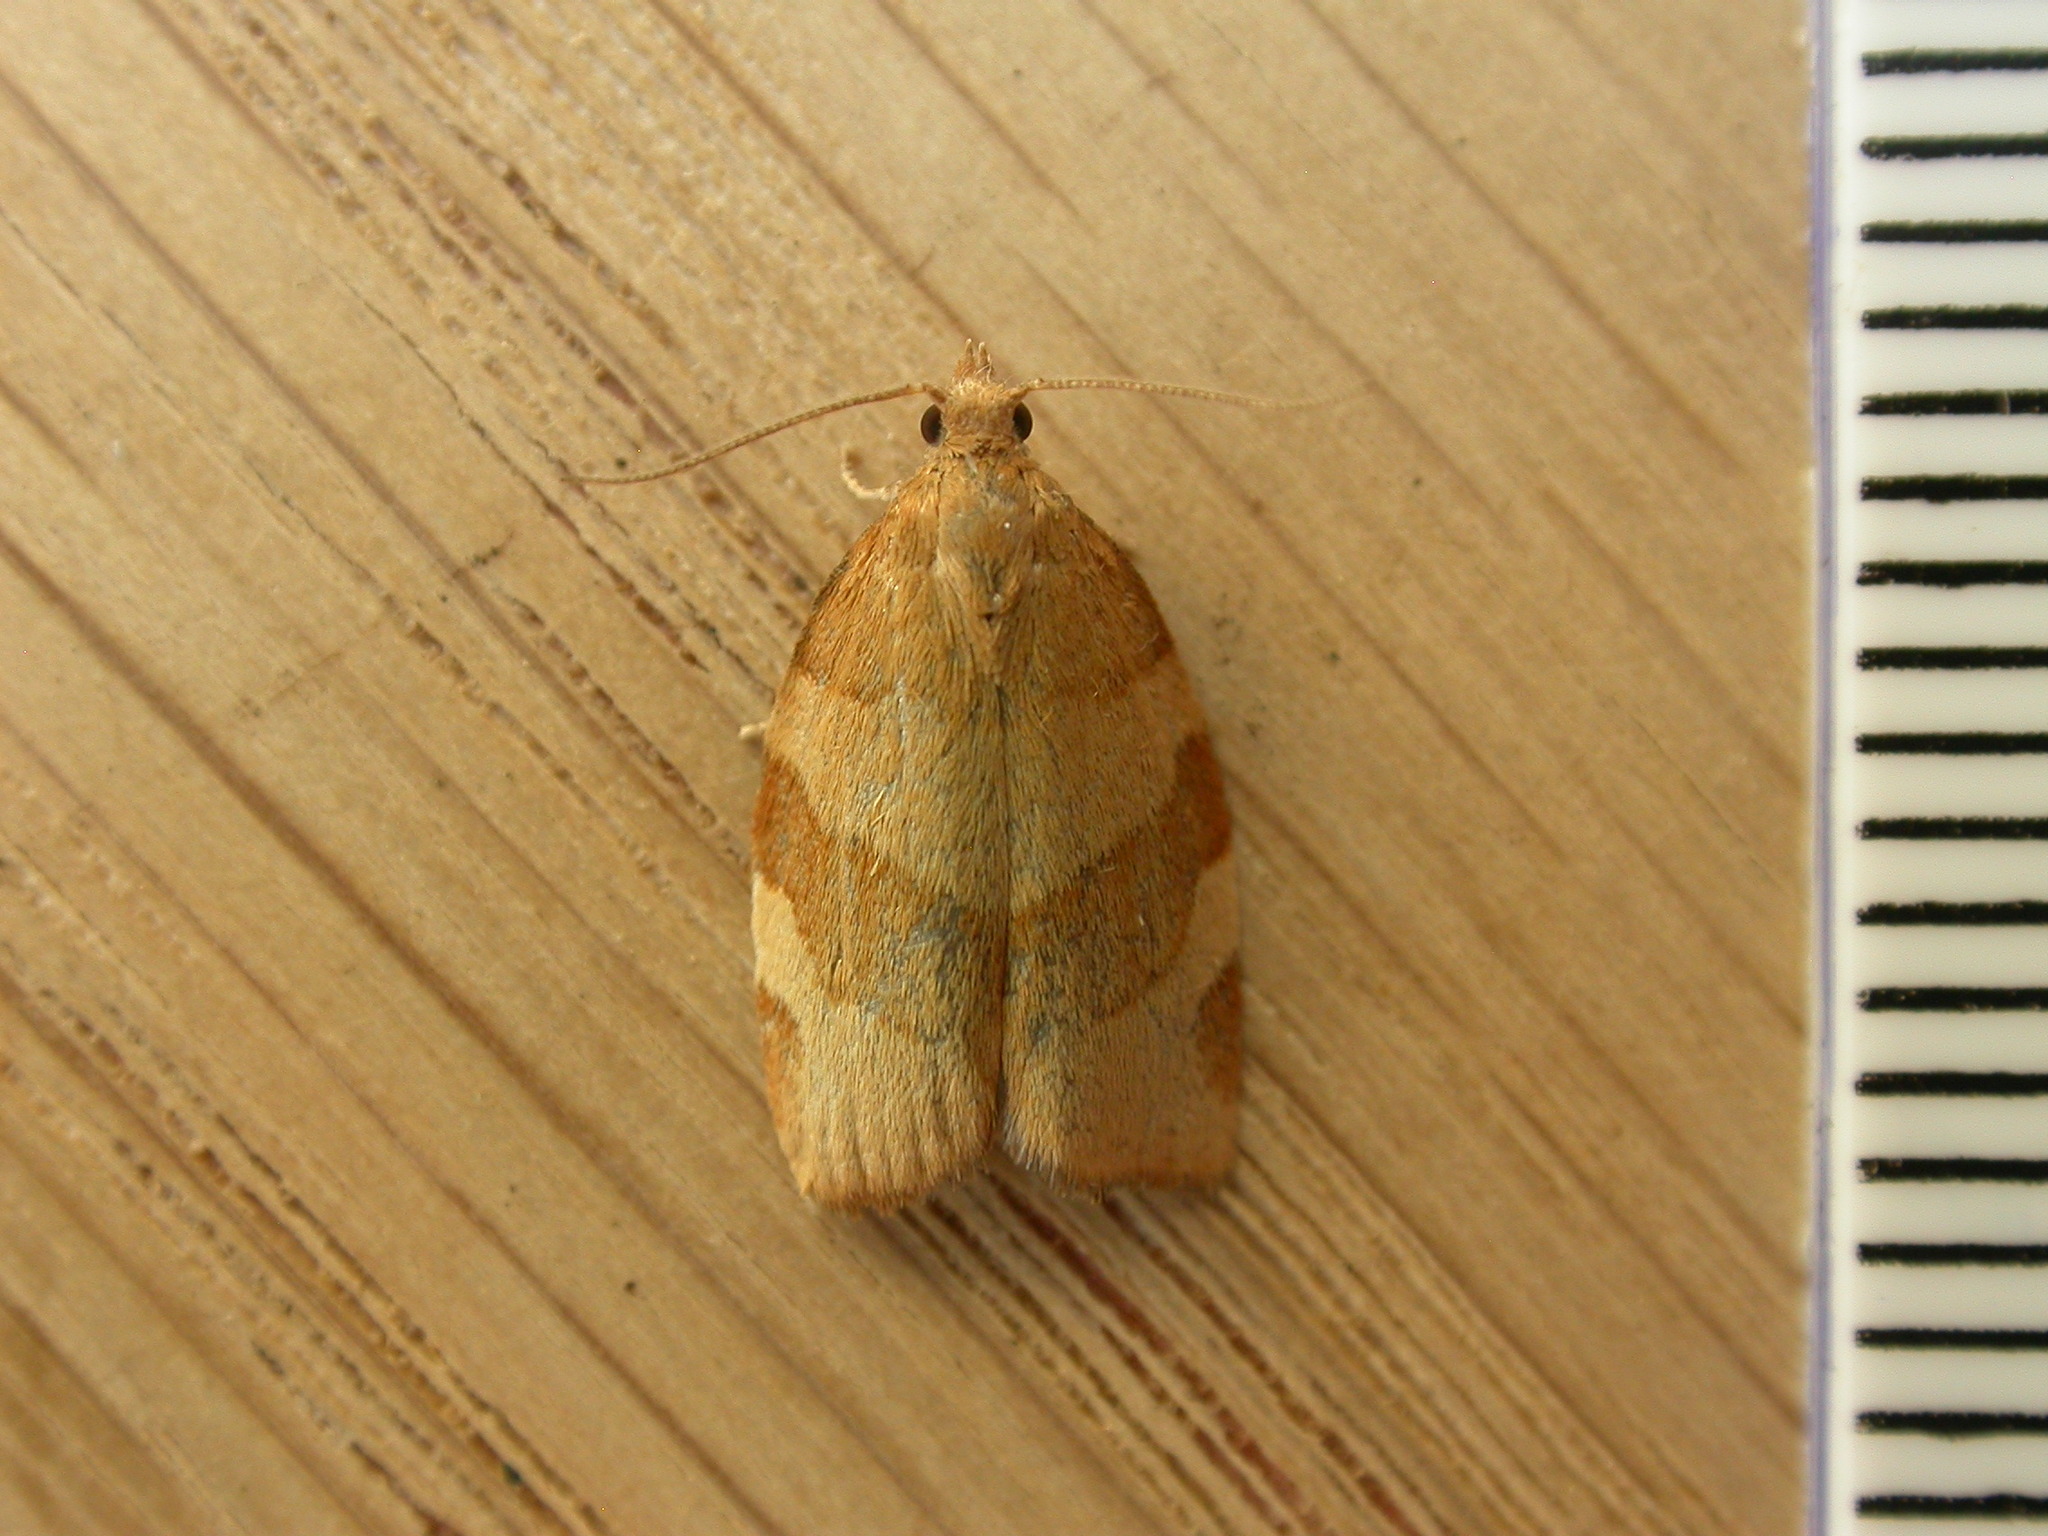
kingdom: Animalia
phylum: Arthropoda
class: Insecta
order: Lepidoptera
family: Tortricidae
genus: Pandemis
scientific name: Pandemis cerasana
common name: Barred fruit-tree tortrix
